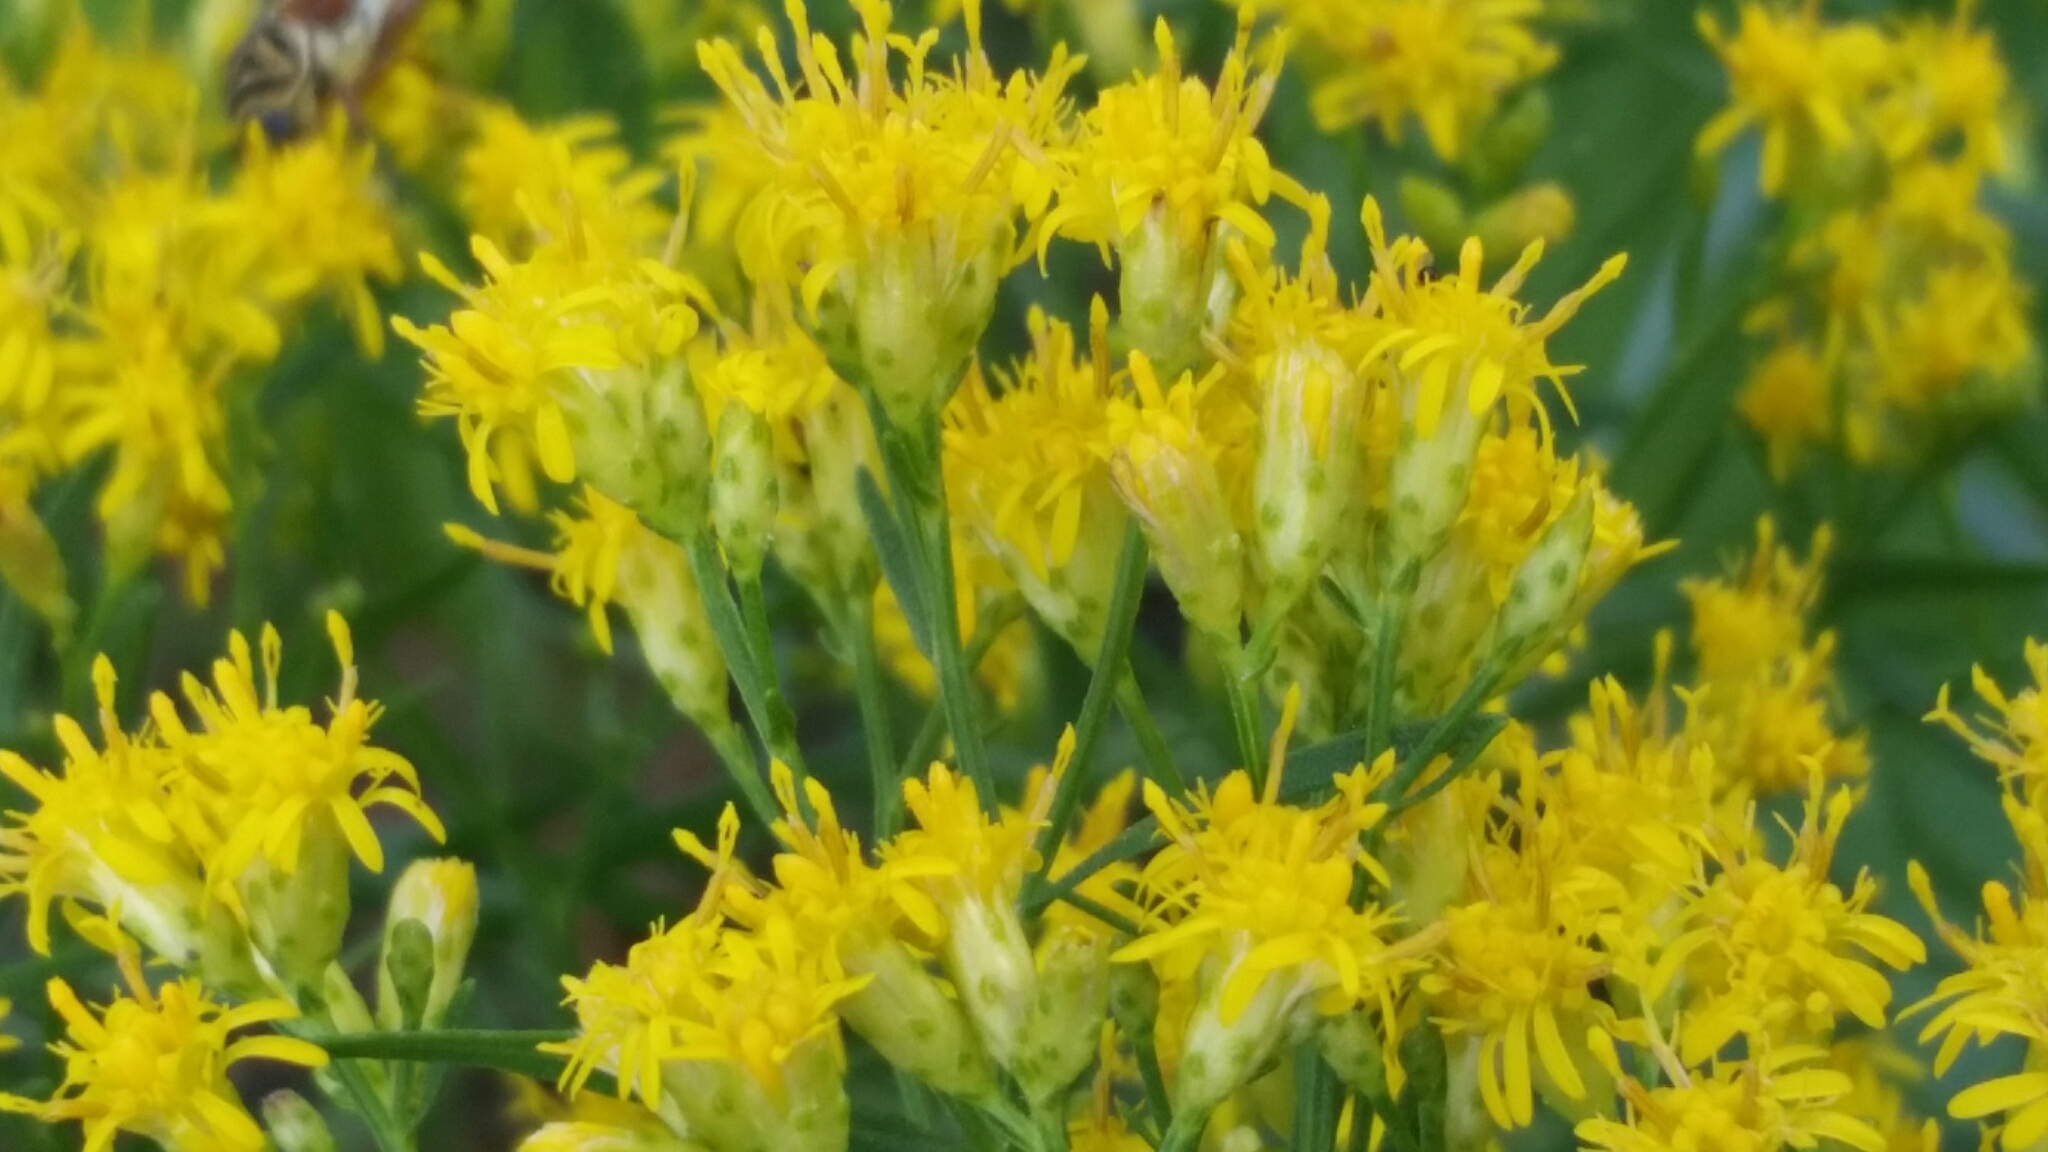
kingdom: Plantae
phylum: Tracheophyta
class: Magnoliopsida
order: Asterales
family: Asteraceae
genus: Euthamia
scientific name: Euthamia weakleyi
